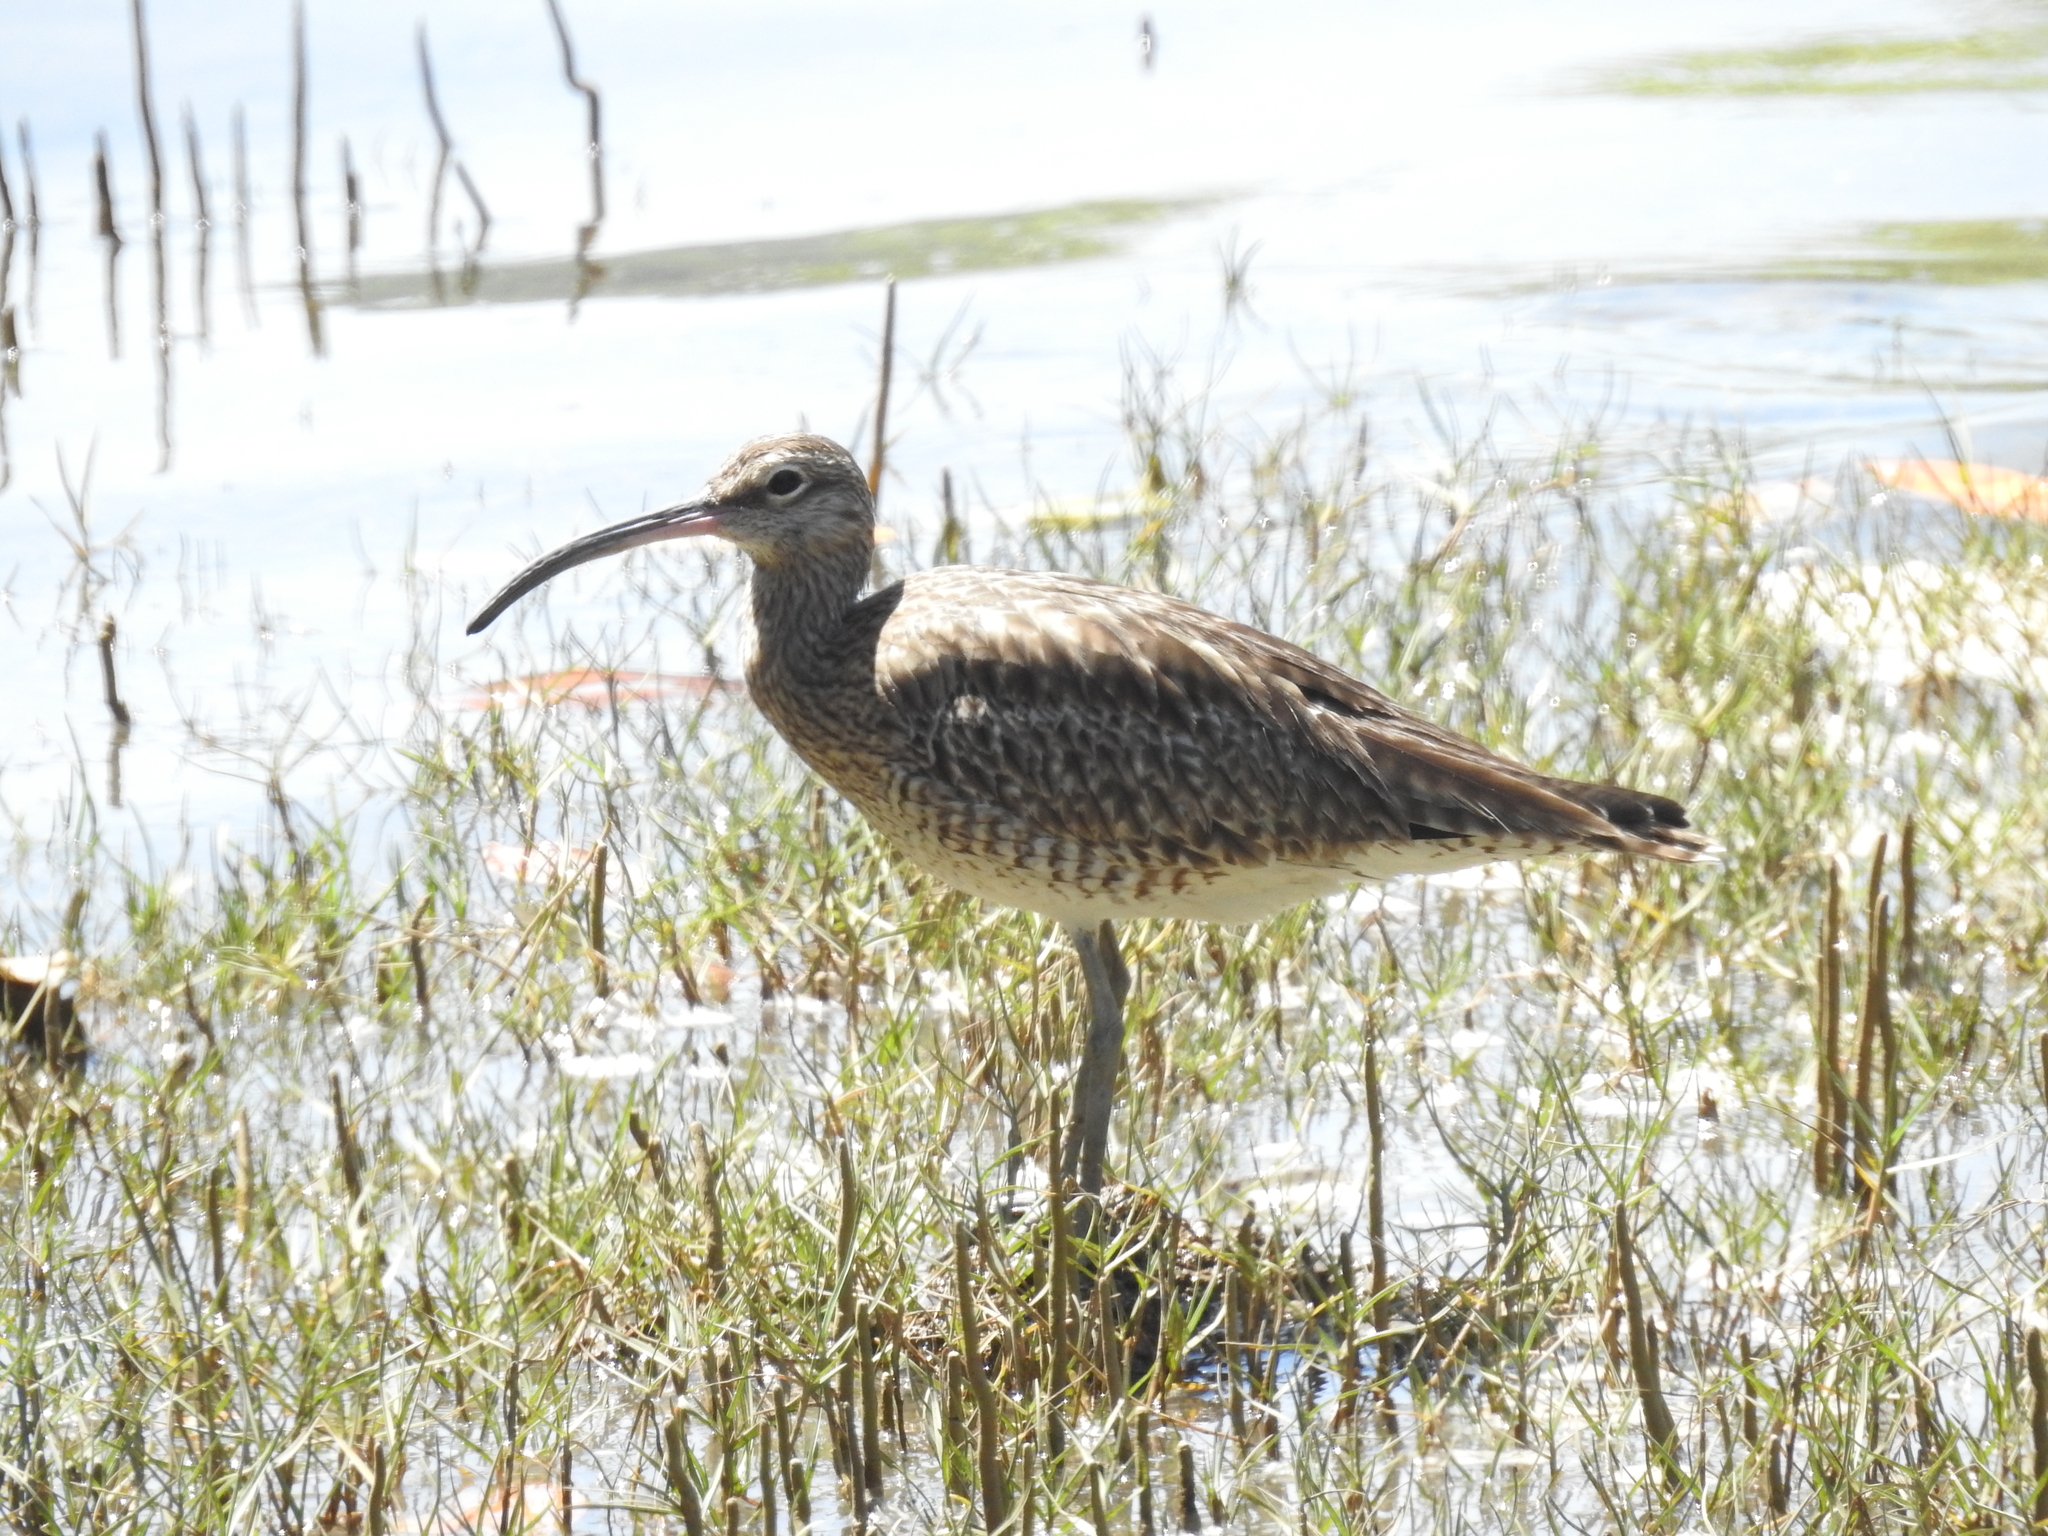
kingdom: Animalia
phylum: Chordata
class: Aves
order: Charadriiformes
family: Scolopacidae
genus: Numenius
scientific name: Numenius phaeopus
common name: Whimbrel
